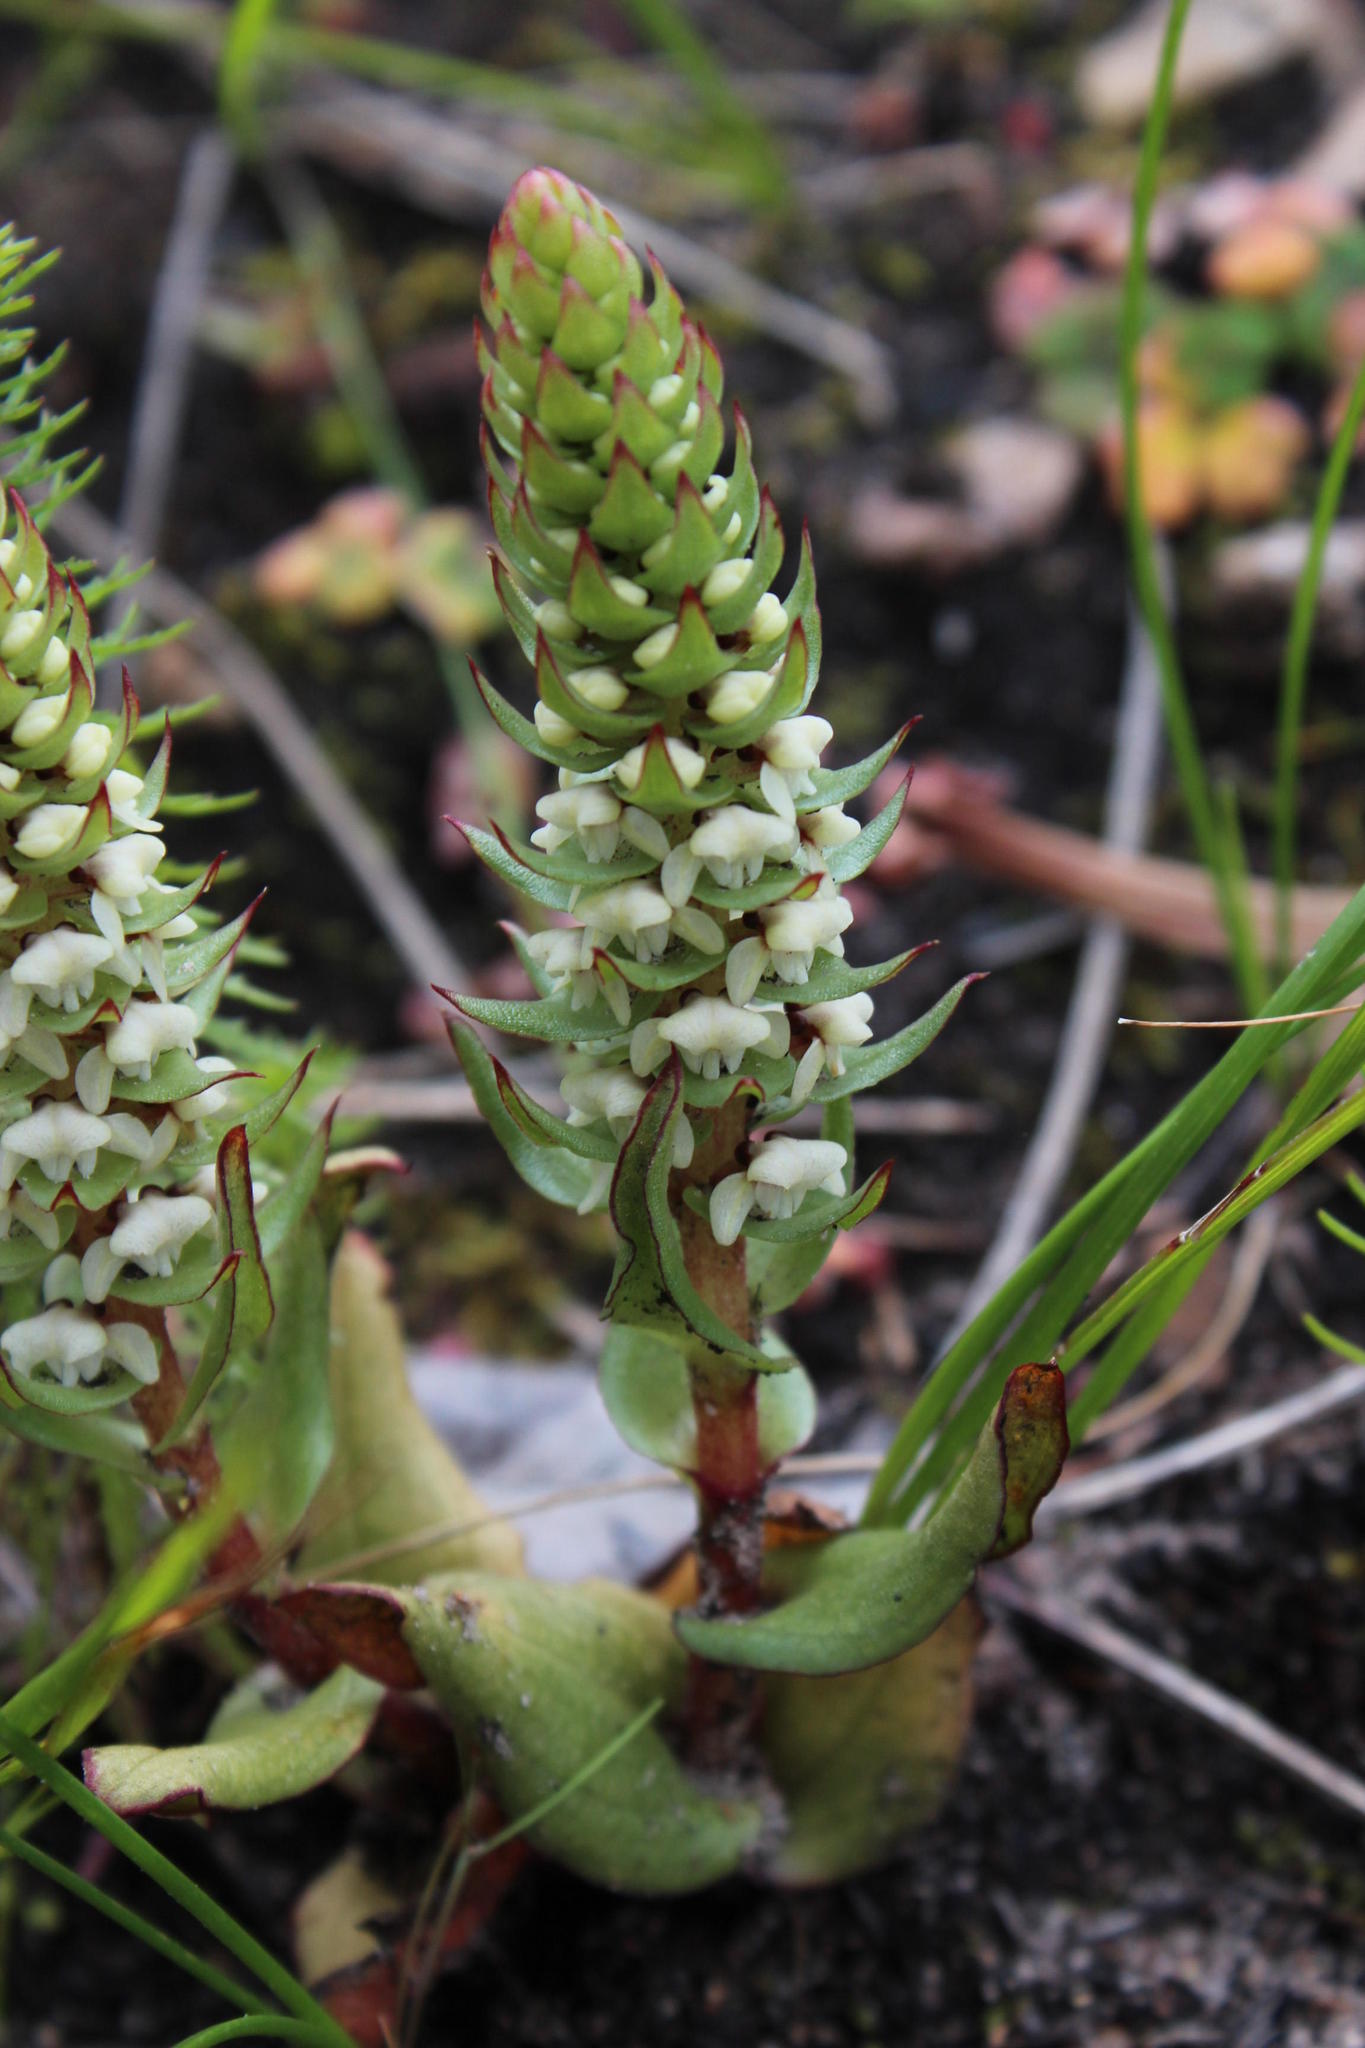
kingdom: Plantae
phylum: Tracheophyta
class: Liliopsida
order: Asparagales
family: Orchidaceae
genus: Satyrium
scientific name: Satyrium bicallosum
